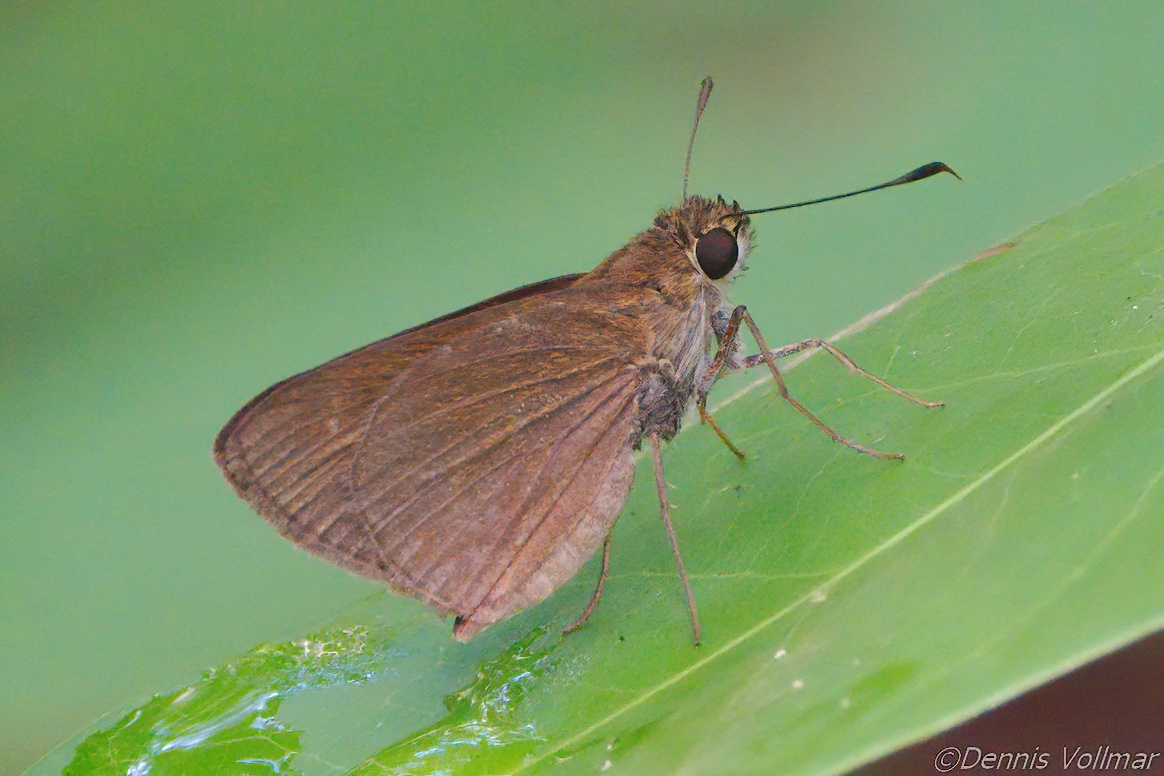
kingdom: Animalia
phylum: Arthropoda
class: Insecta
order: Lepidoptera
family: Hesperiidae
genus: Cymaenes
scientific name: Cymaenes tripunctus
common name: Dingy dotted skipper
